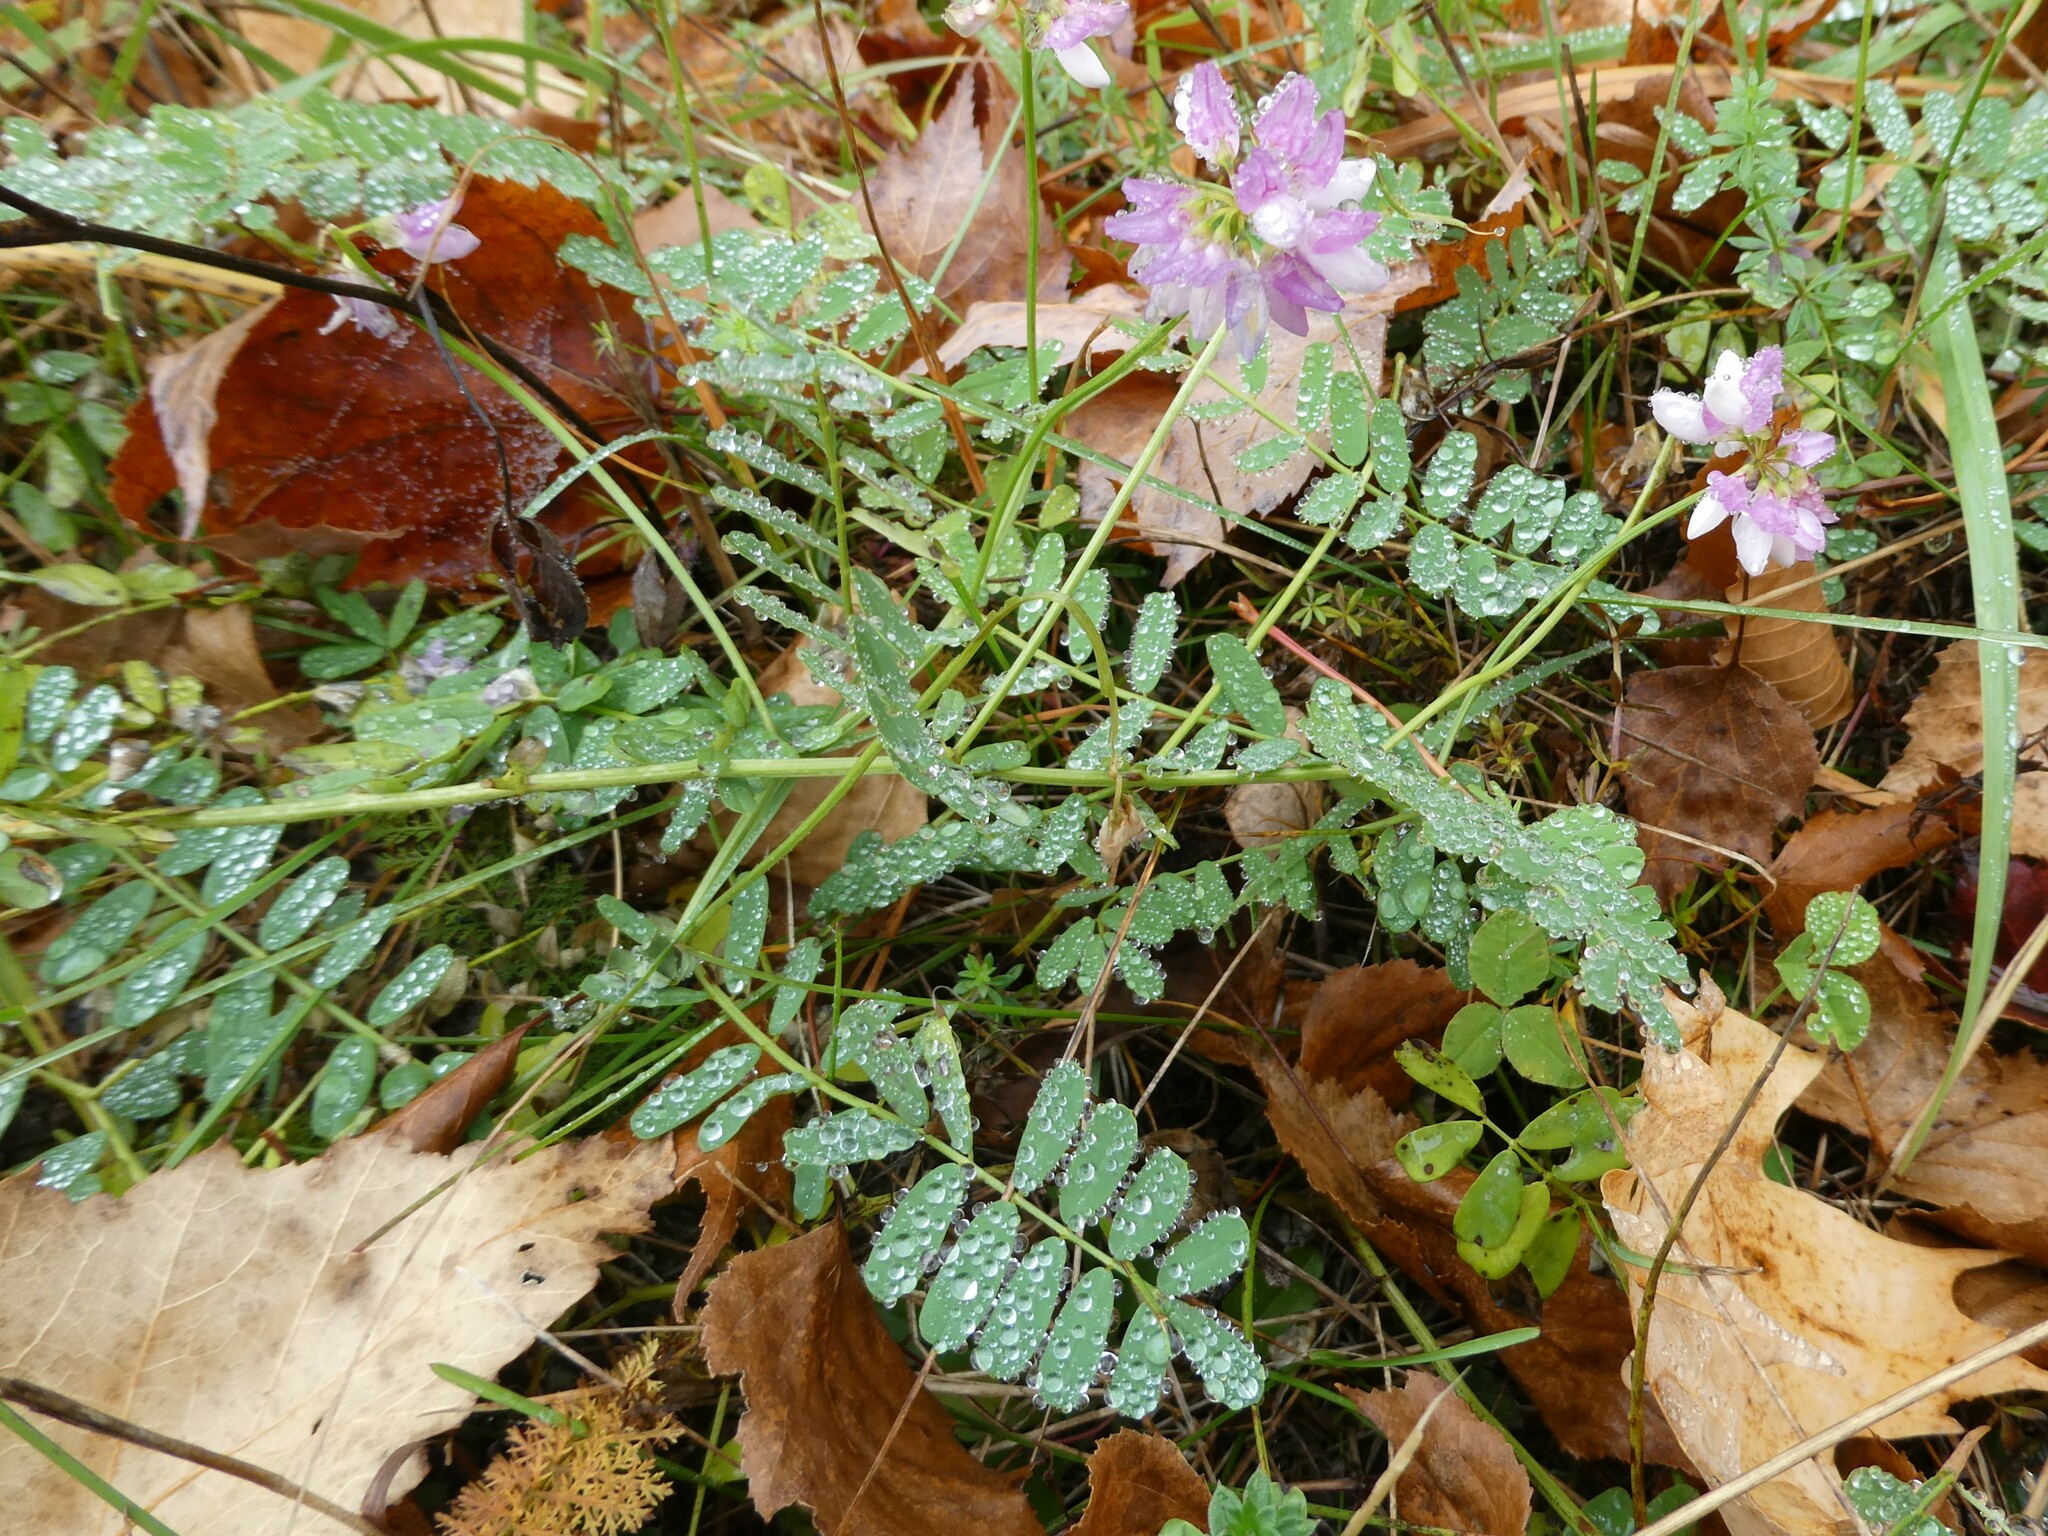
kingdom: Plantae
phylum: Tracheophyta
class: Magnoliopsida
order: Fabales
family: Fabaceae
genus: Coronilla
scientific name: Coronilla varia
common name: Crownvetch
